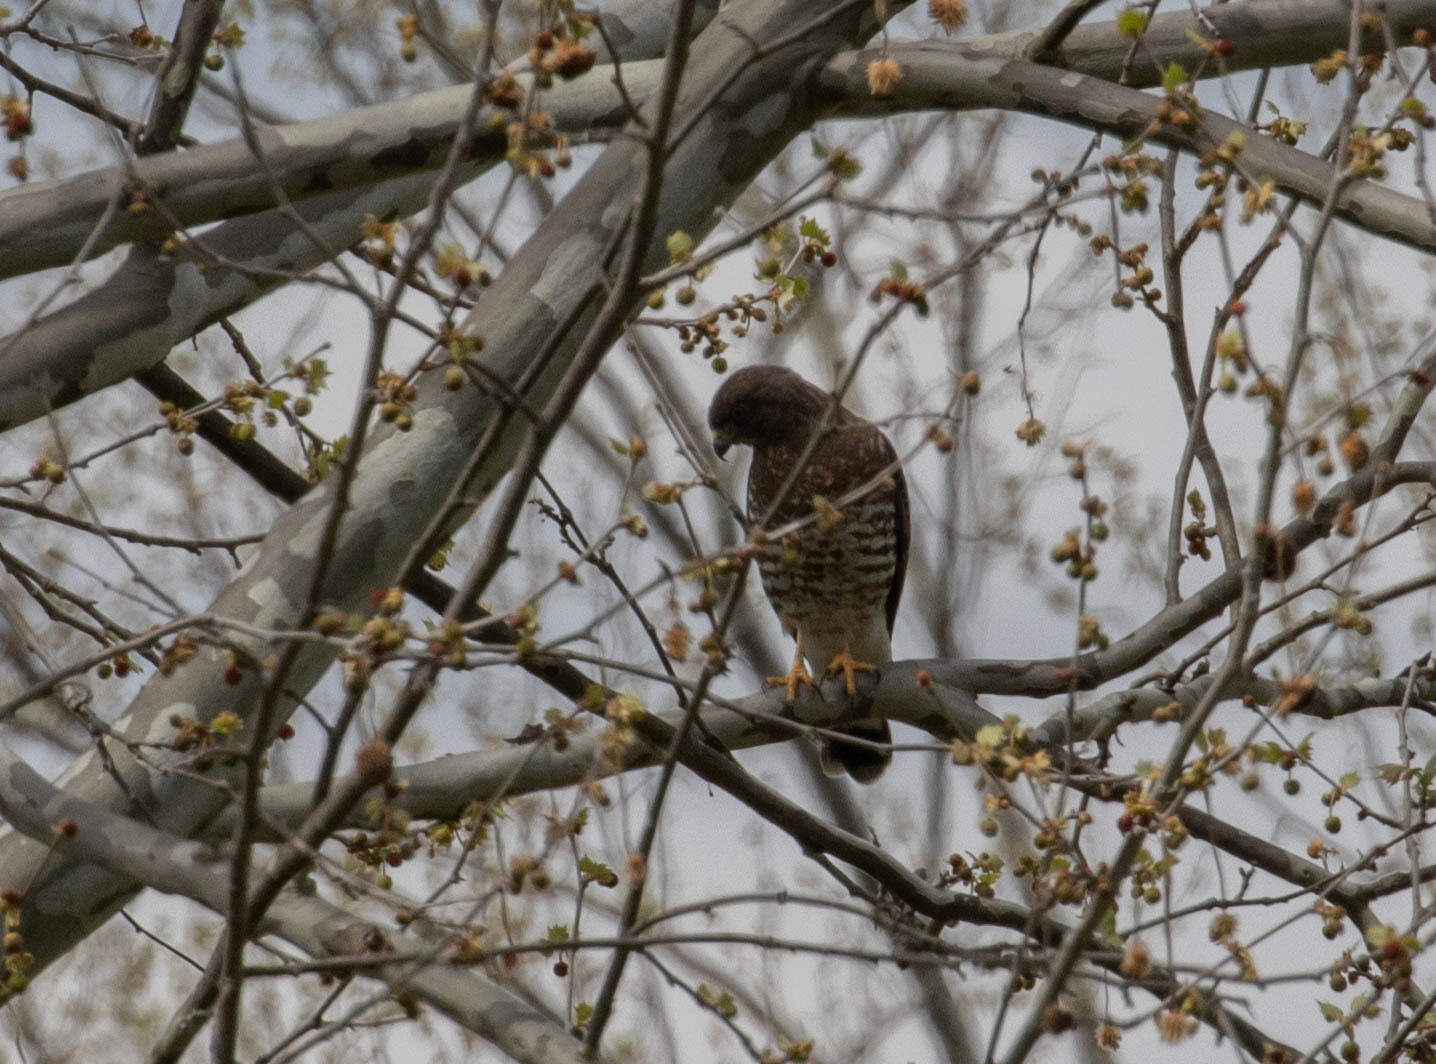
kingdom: Animalia
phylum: Chordata
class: Aves
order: Accipitriformes
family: Accipitridae
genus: Buteo
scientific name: Buteo platypterus
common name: Broad-winged hawk
